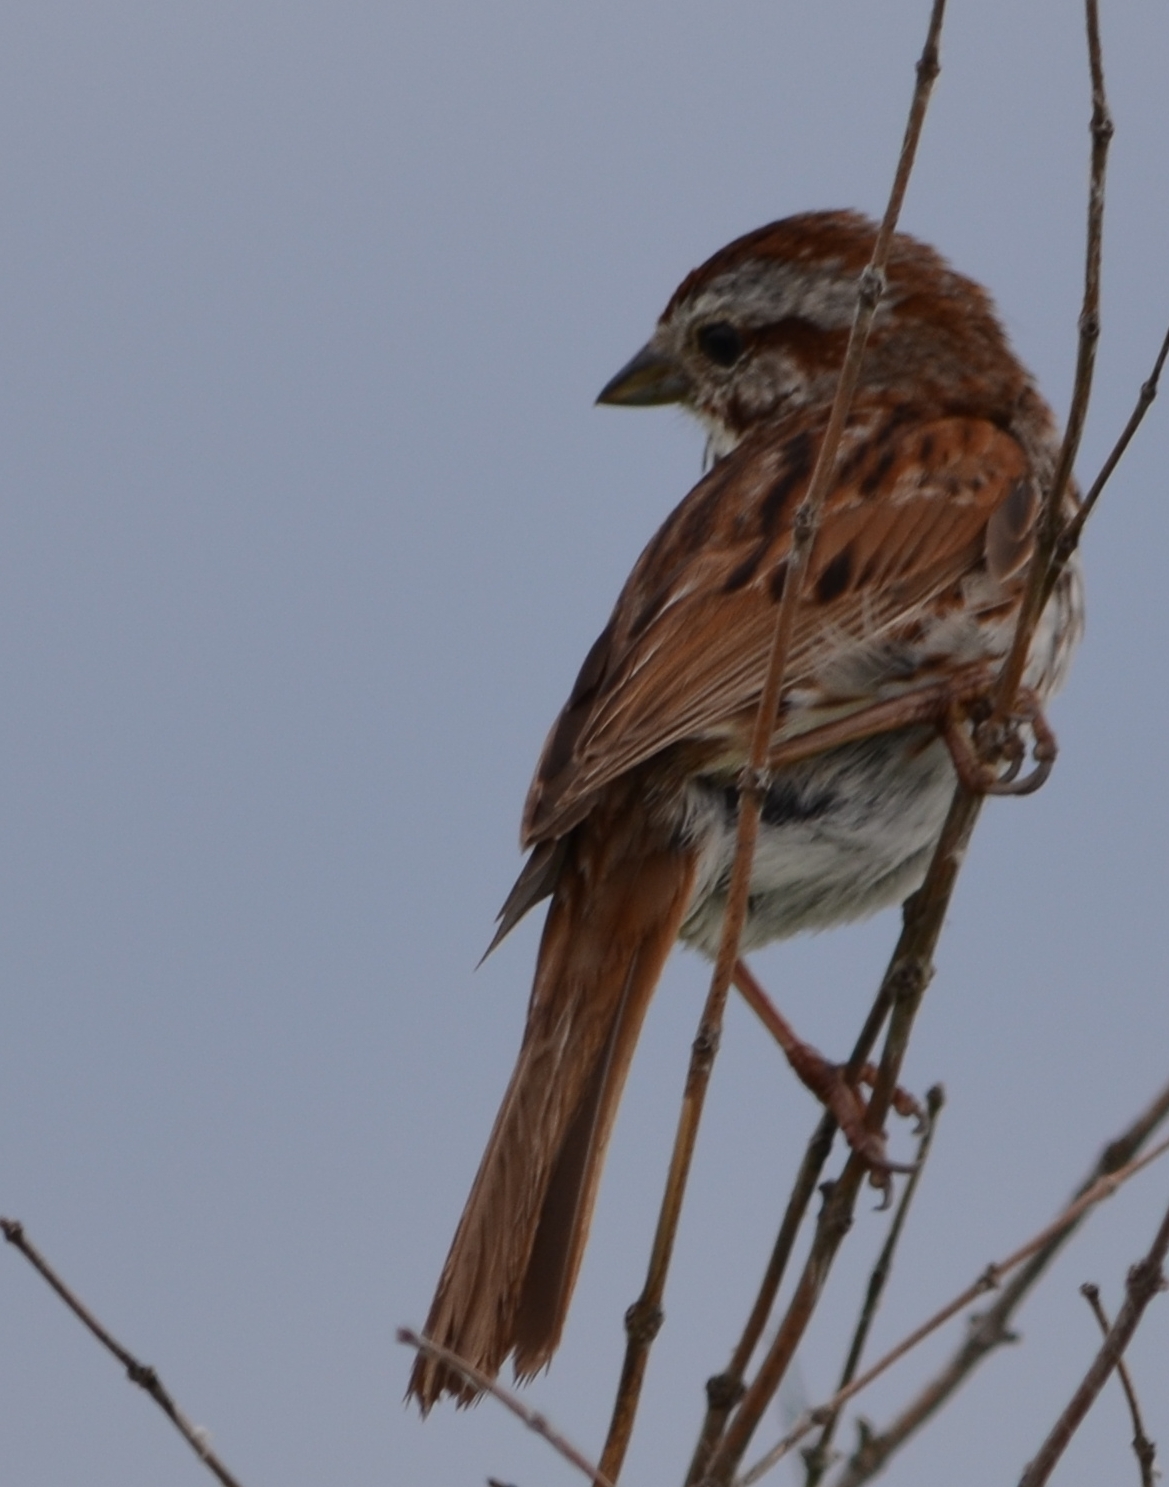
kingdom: Animalia
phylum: Chordata
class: Aves
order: Passeriformes
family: Passerellidae
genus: Melospiza
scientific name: Melospiza melodia
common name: Song sparrow
